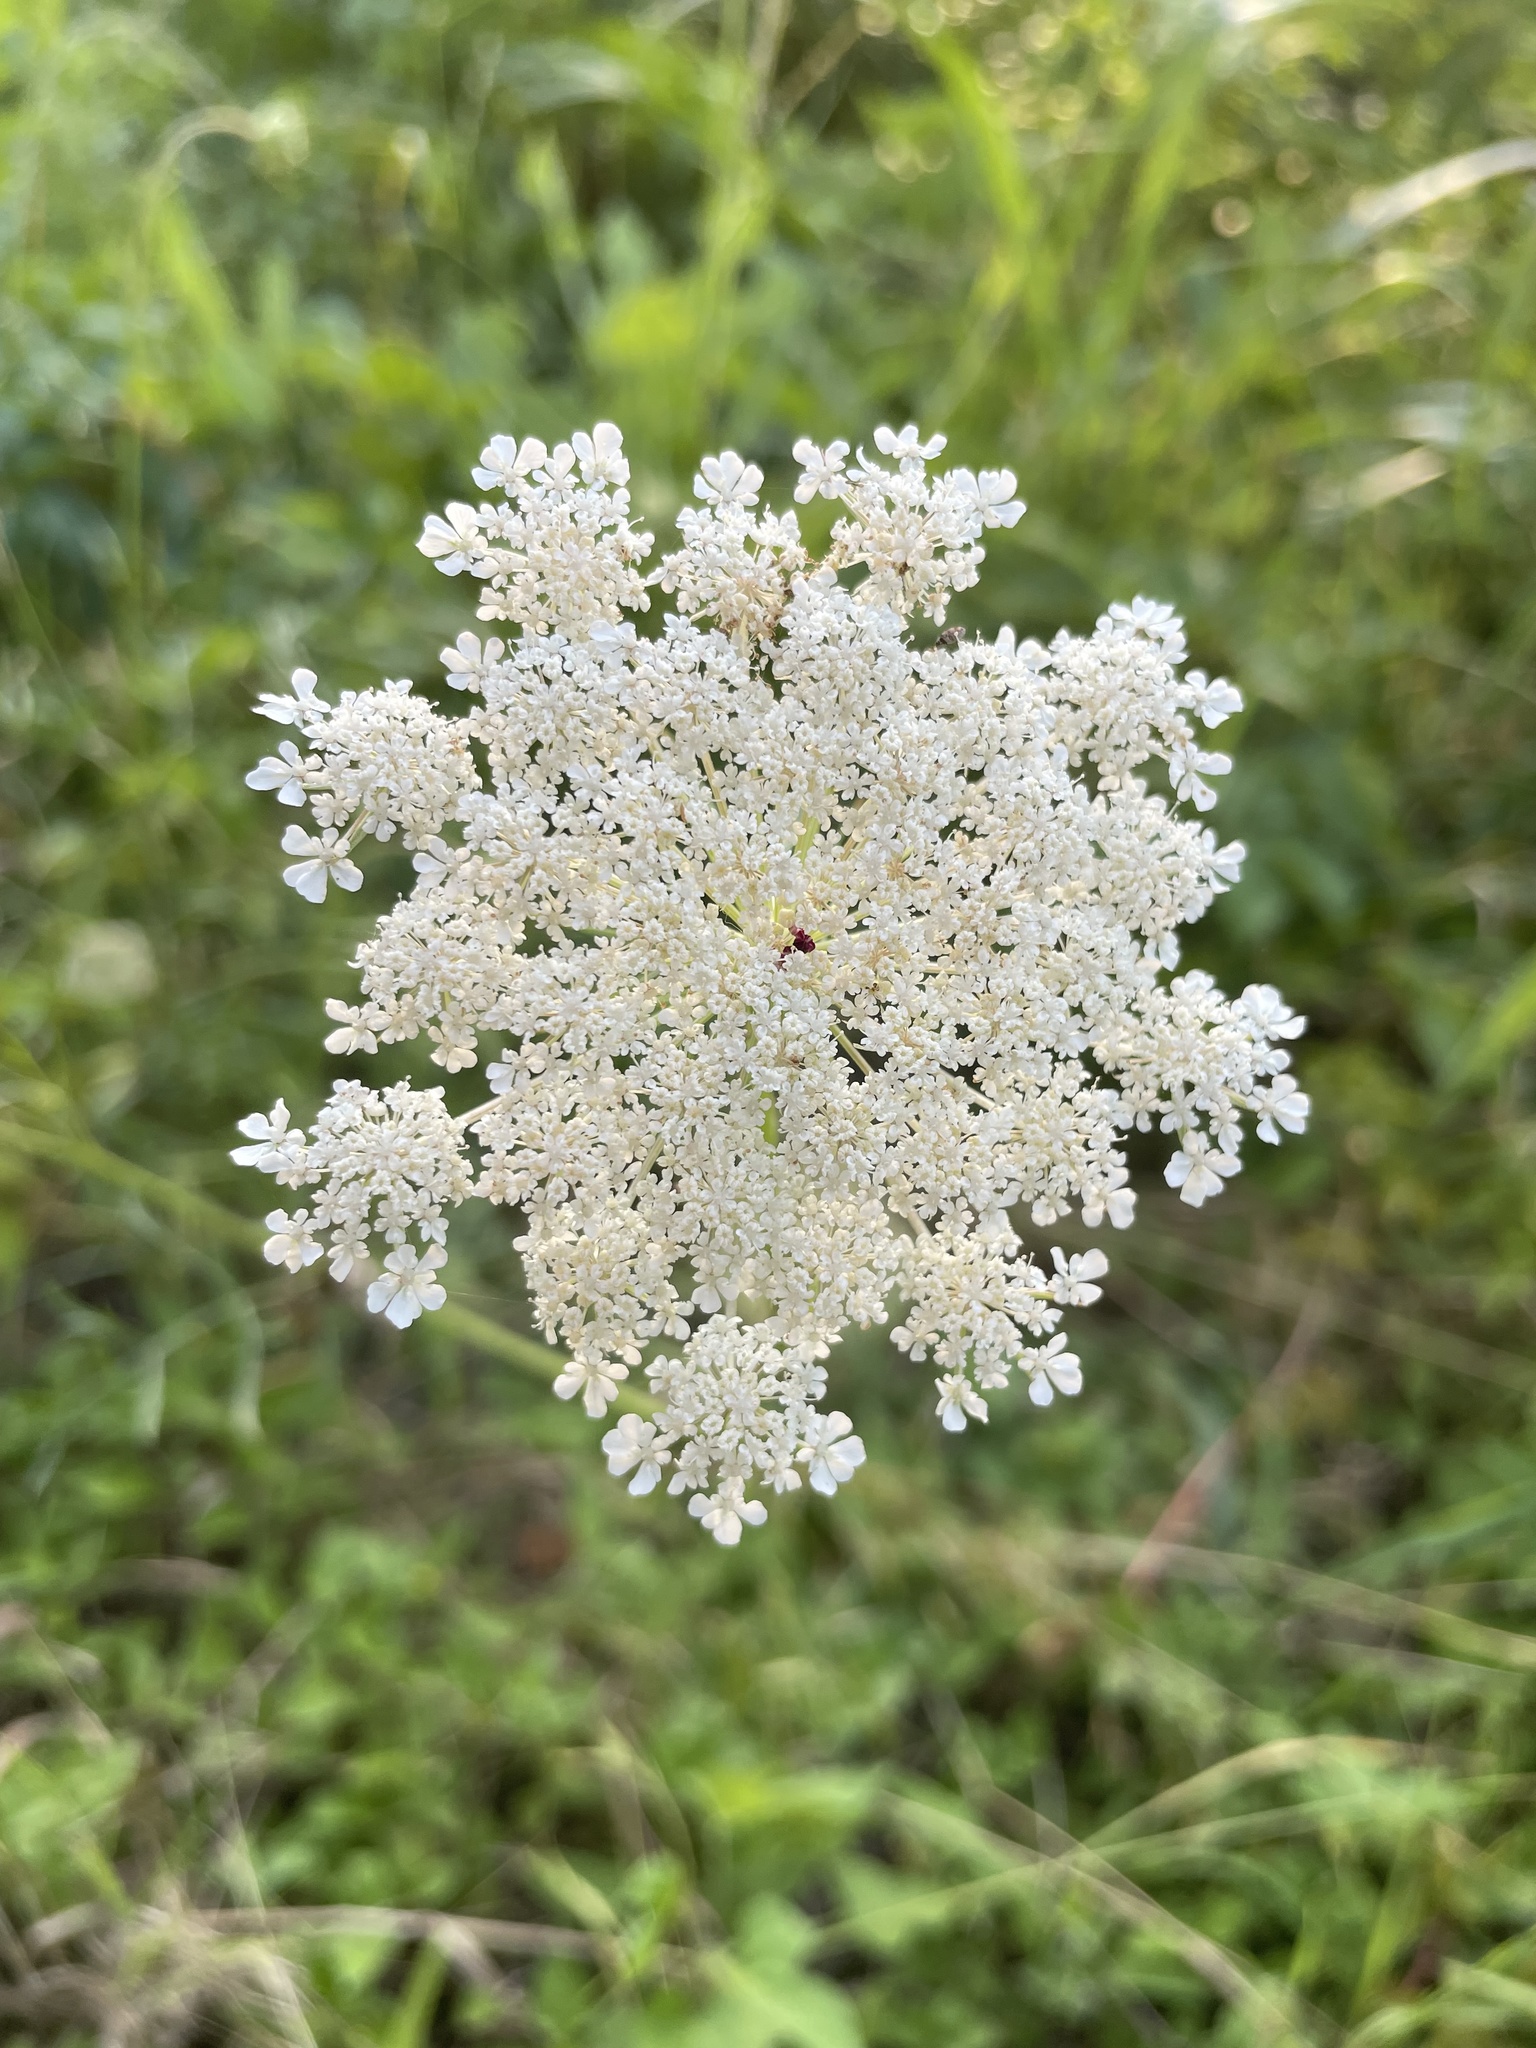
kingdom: Plantae
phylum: Tracheophyta
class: Magnoliopsida
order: Apiales
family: Apiaceae
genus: Daucus
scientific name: Daucus carota
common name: Wild carrot
